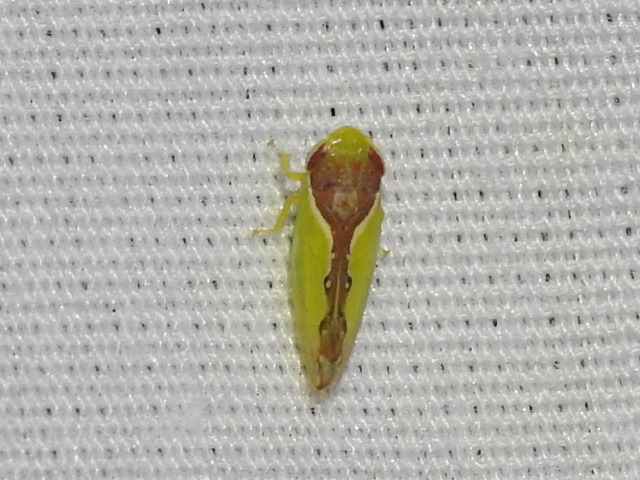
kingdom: Animalia
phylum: Arthropoda
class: Insecta
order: Hemiptera
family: Cicadellidae
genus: Omansobara ing
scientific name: Omansobara ing Omansobara palliolata
